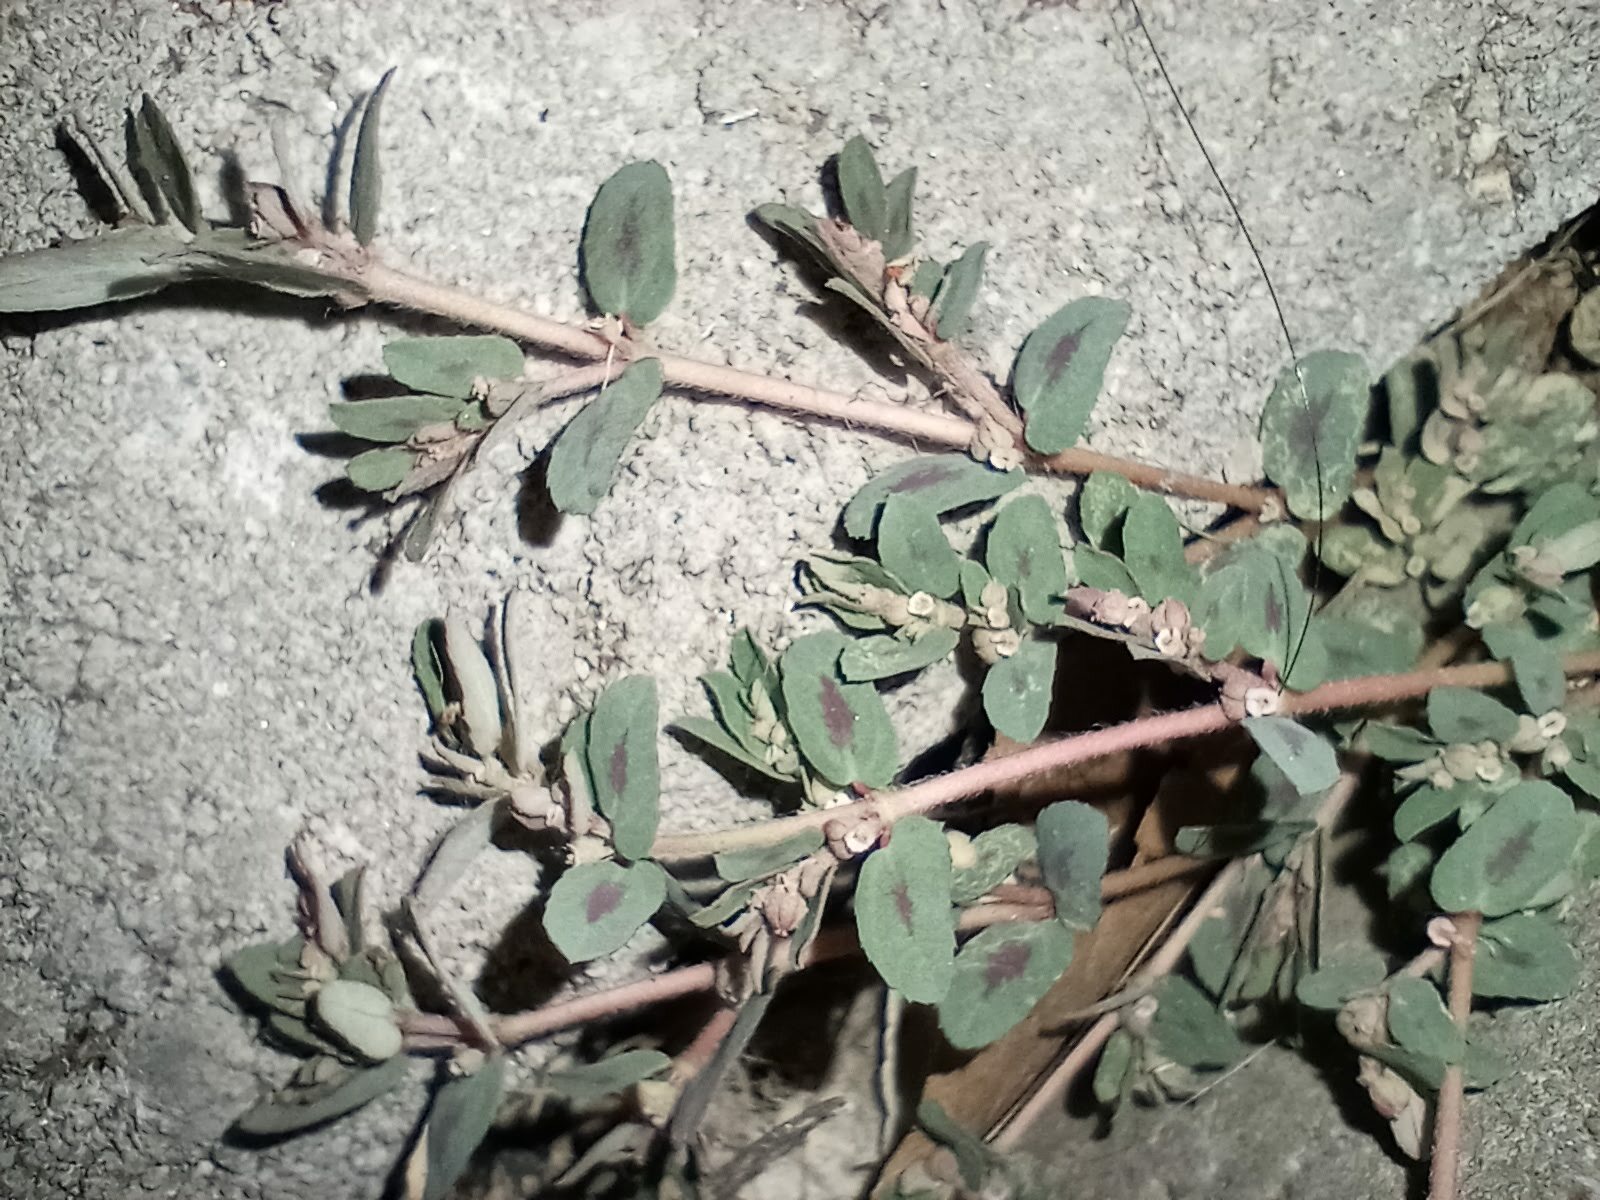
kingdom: Plantae
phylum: Tracheophyta
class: Magnoliopsida
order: Malpighiales
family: Euphorbiaceae
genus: Euphorbia
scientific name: Euphorbia maculata
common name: Spotted spurge
